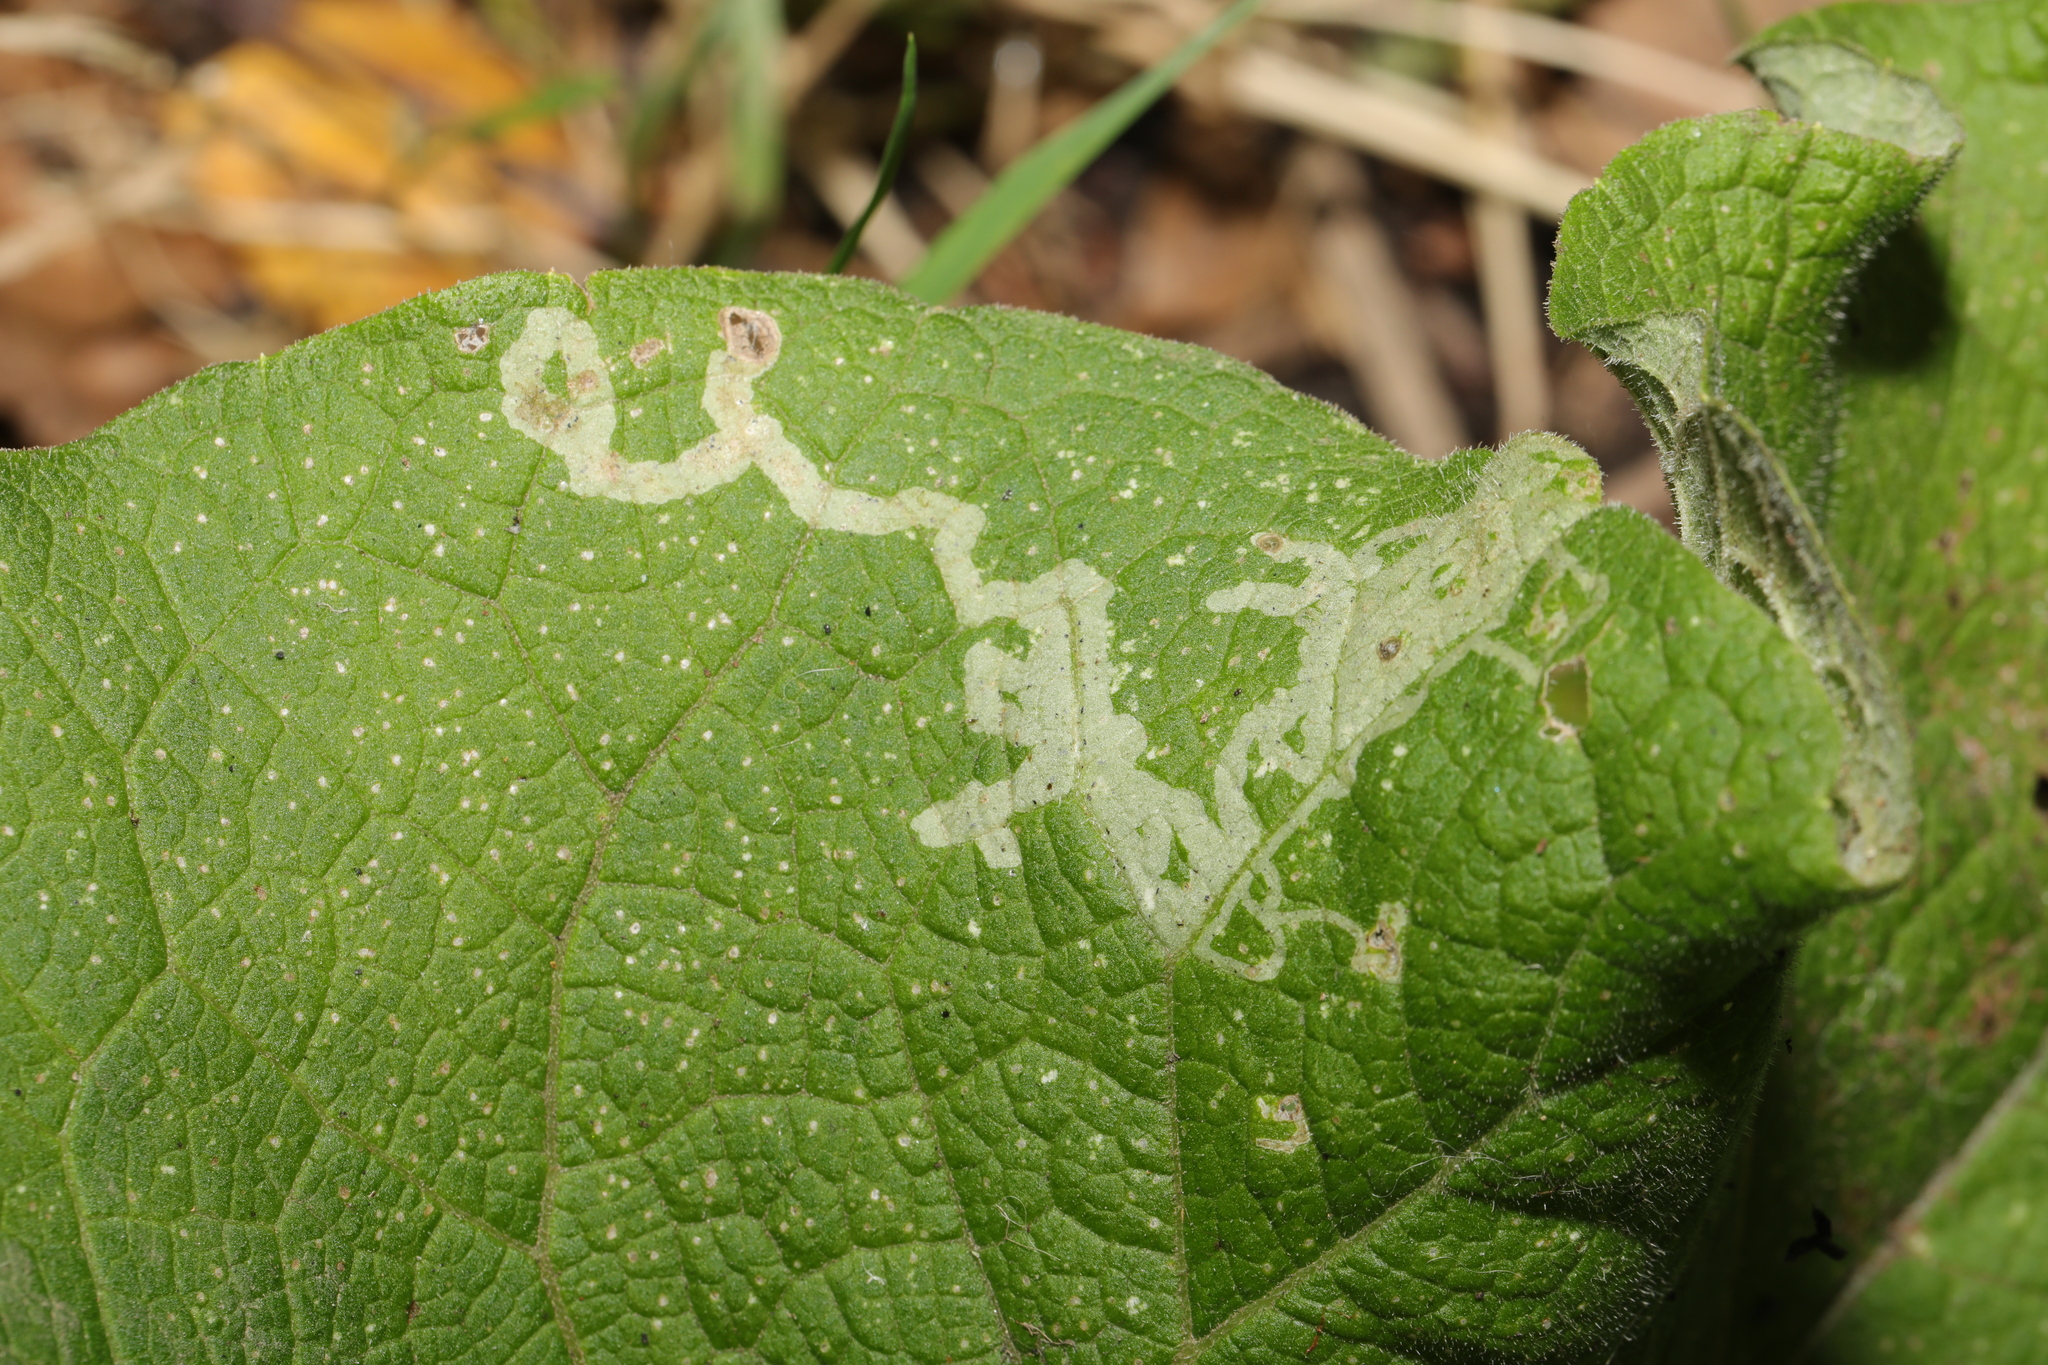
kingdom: Animalia
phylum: Arthropoda
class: Insecta
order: Diptera
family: Agromyzidae
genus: Phytomyza
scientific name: Phytomyza lappae
